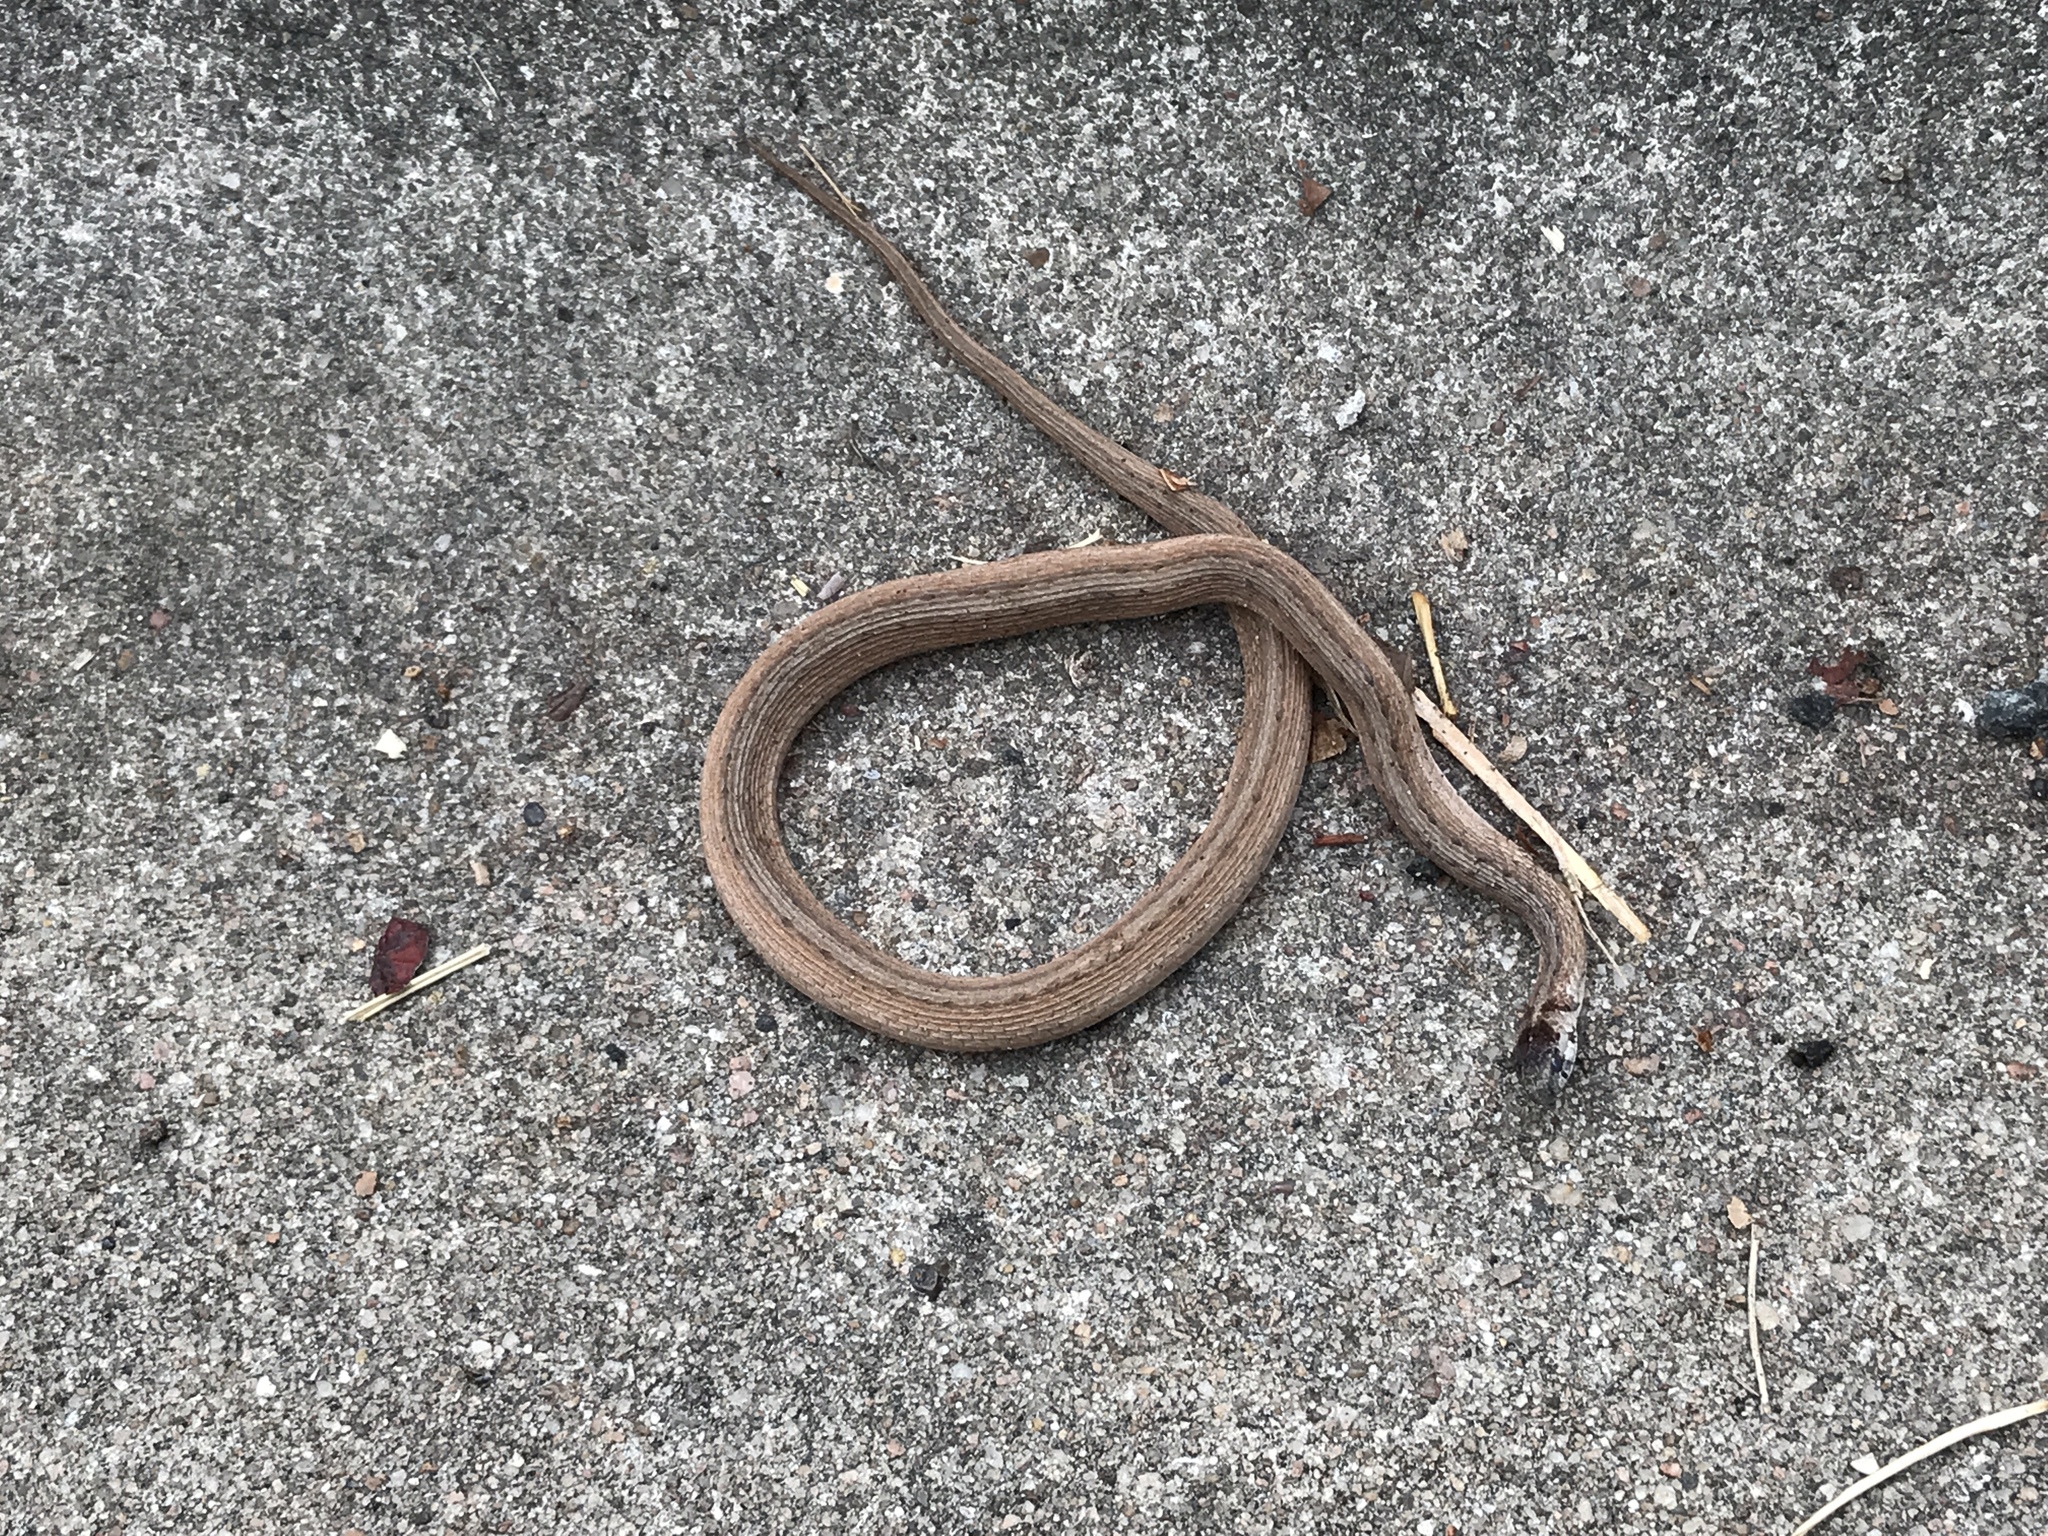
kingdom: Animalia
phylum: Chordata
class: Squamata
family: Colubridae
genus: Storeria
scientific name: Storeria dekayi
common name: (dekay’s) brown snake
